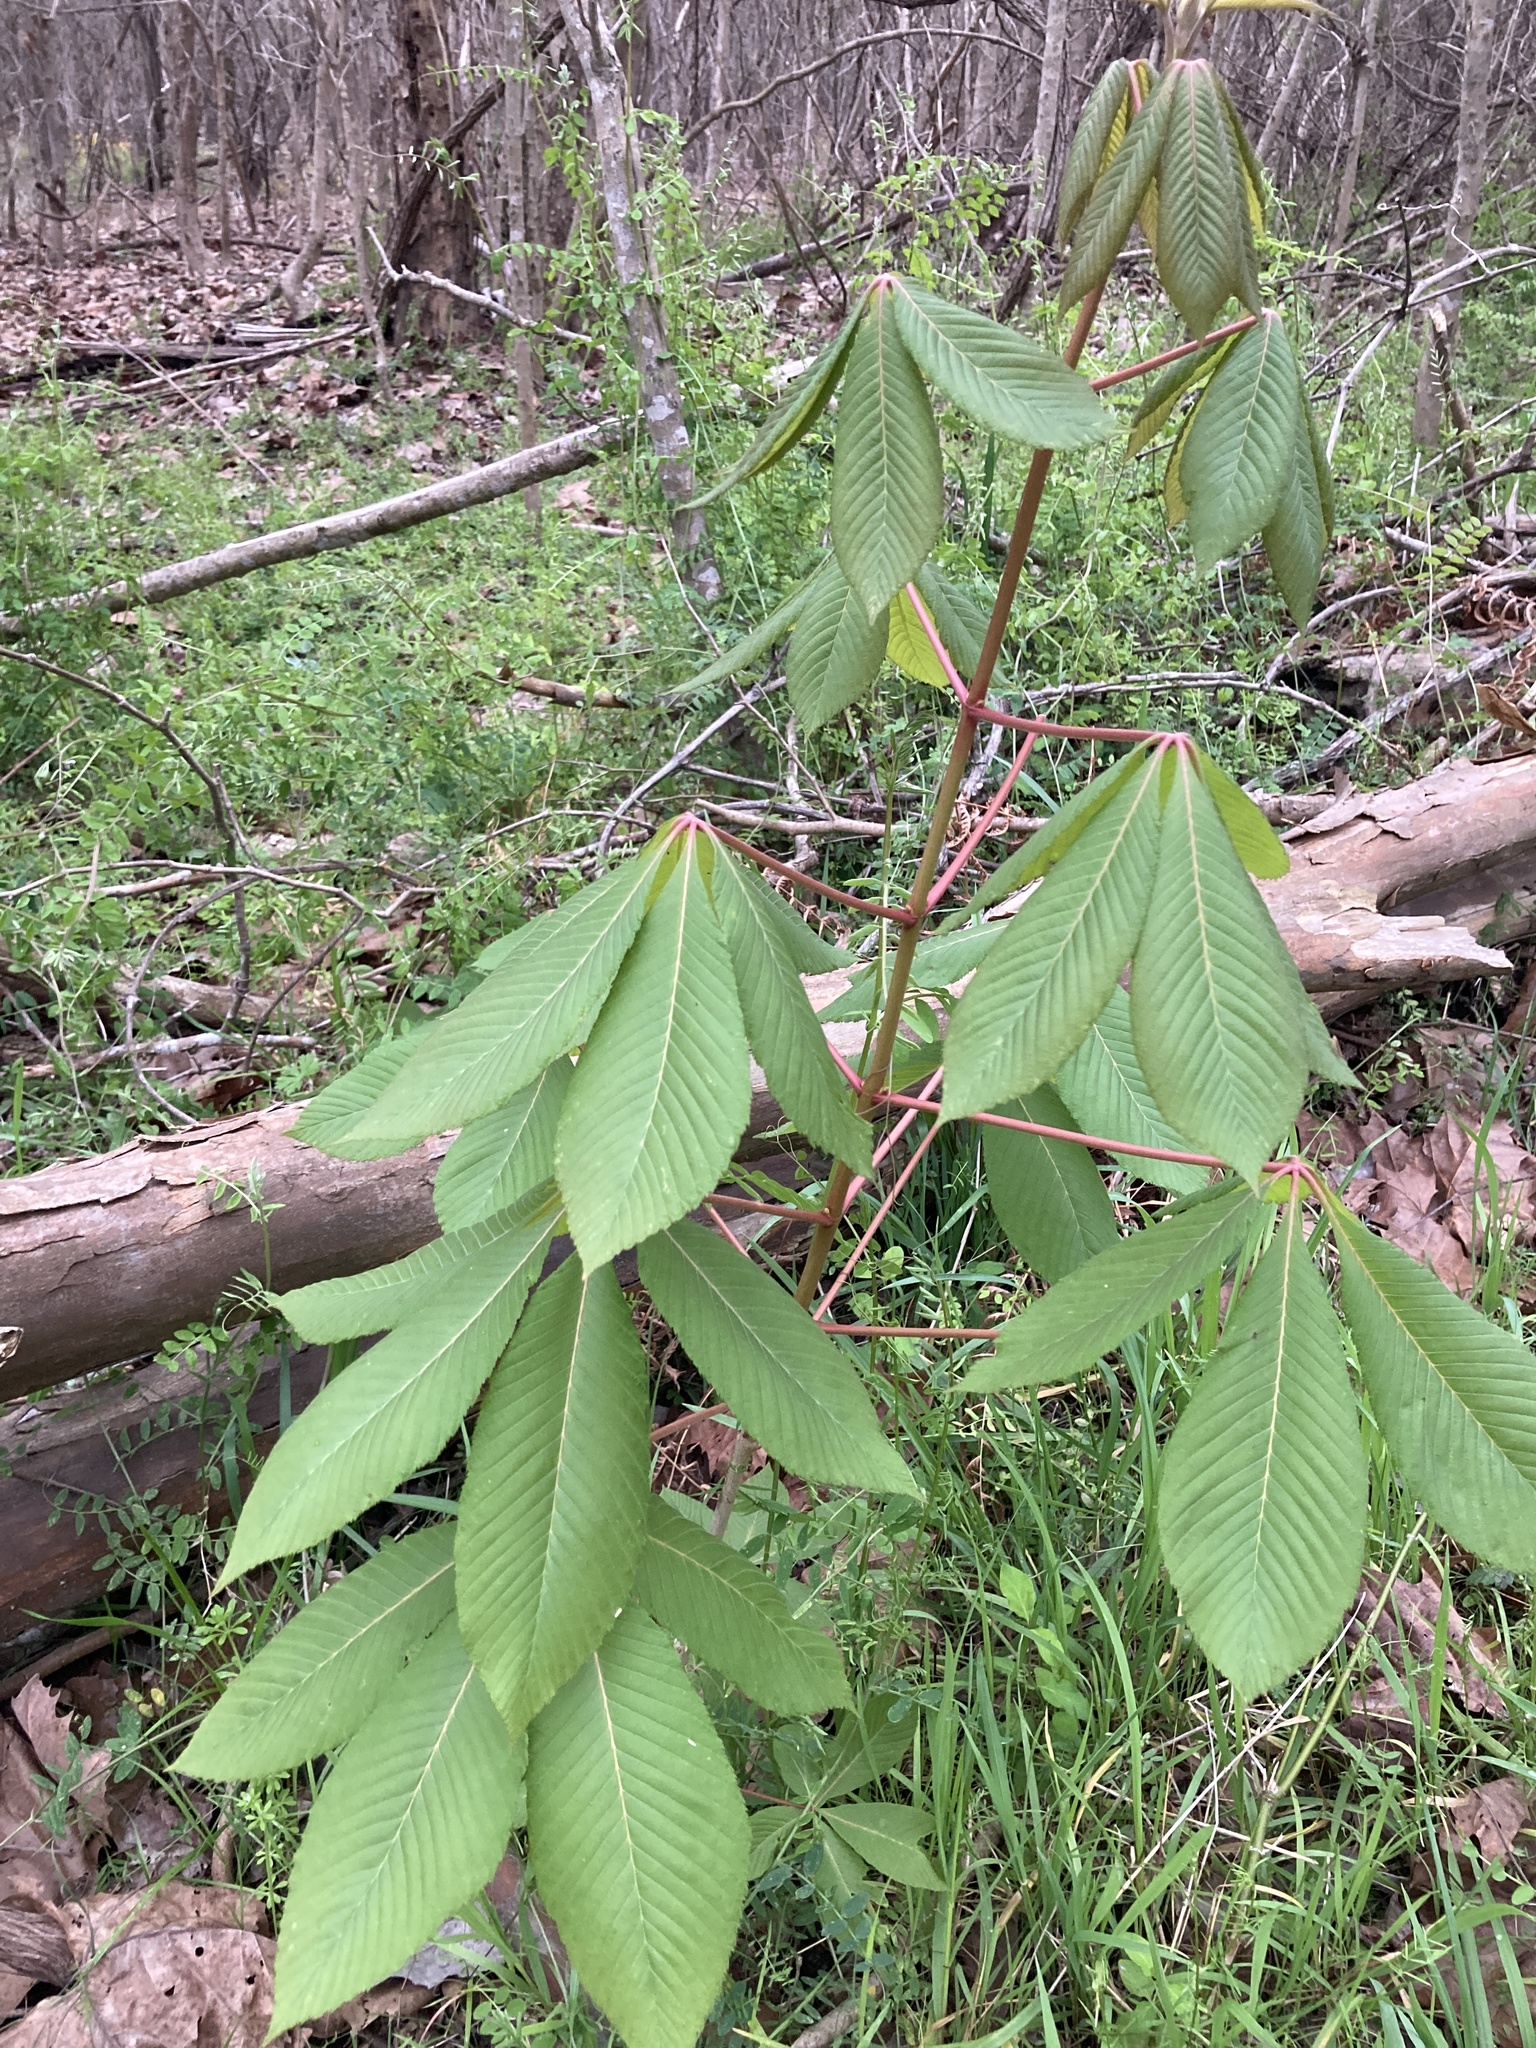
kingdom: Plantae
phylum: Tracheophyta
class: Magnoliopsida
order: Sapindales
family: Sapindaceae
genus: Aesculus
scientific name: Aesculus pavia
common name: Red buckeye
